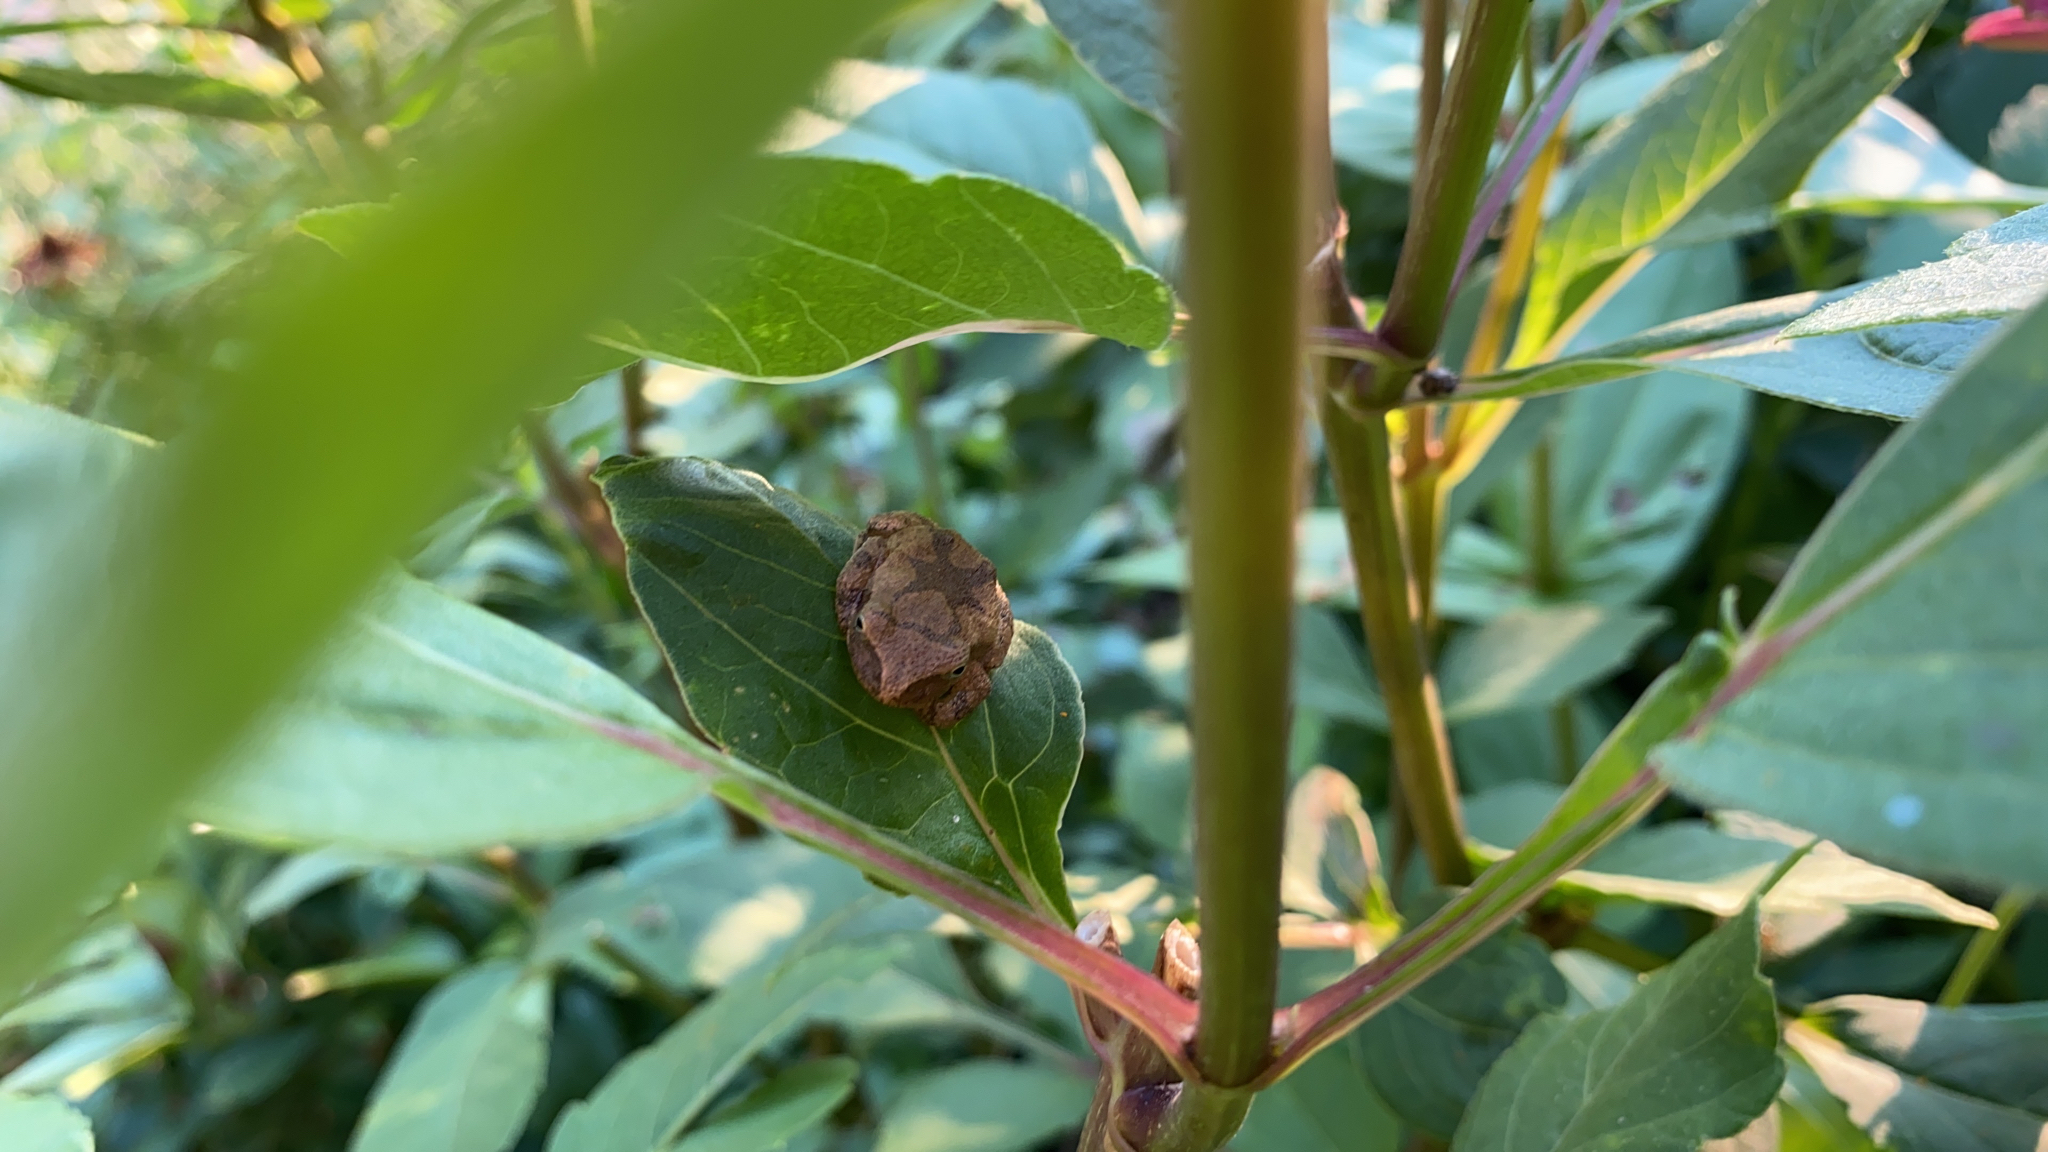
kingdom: Animalia
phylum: Chordata
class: Amphibia
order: Anura
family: Hylidae
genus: Pseudacris
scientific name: Pseudacris crucifer
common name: Spring peeper
